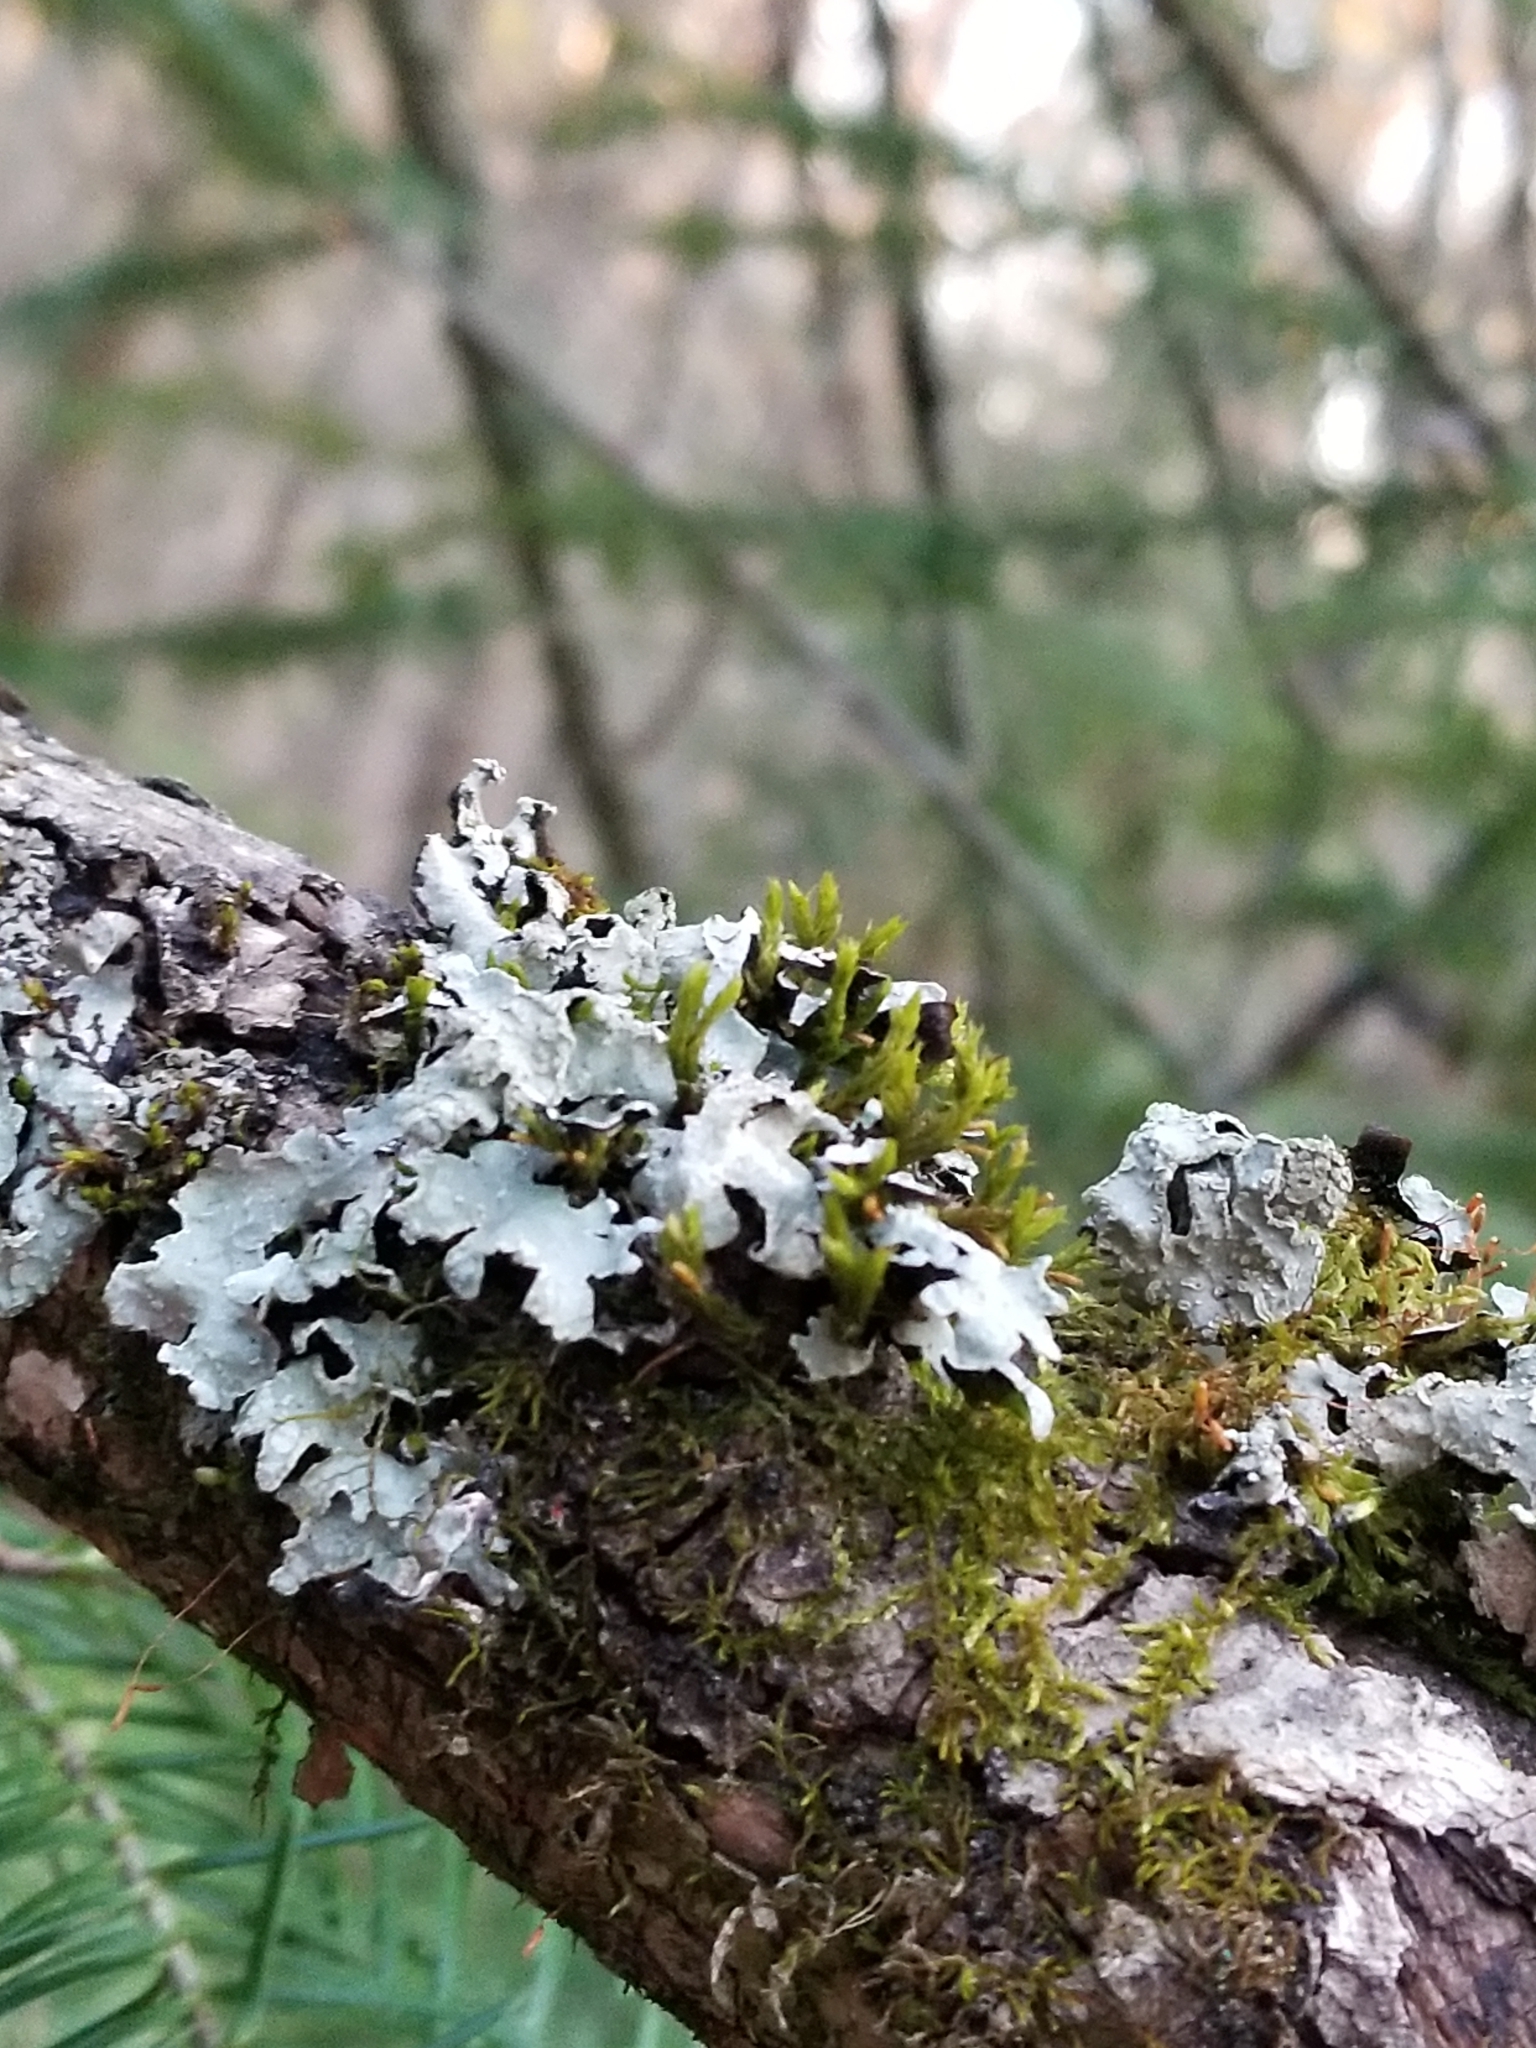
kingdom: Fungi
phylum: Ascomycota
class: Lecanoromycetes
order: Lecanorales
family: Parmeliaceae
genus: Parmelia
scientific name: Parmelia sulcata
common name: Netted shield lichen
